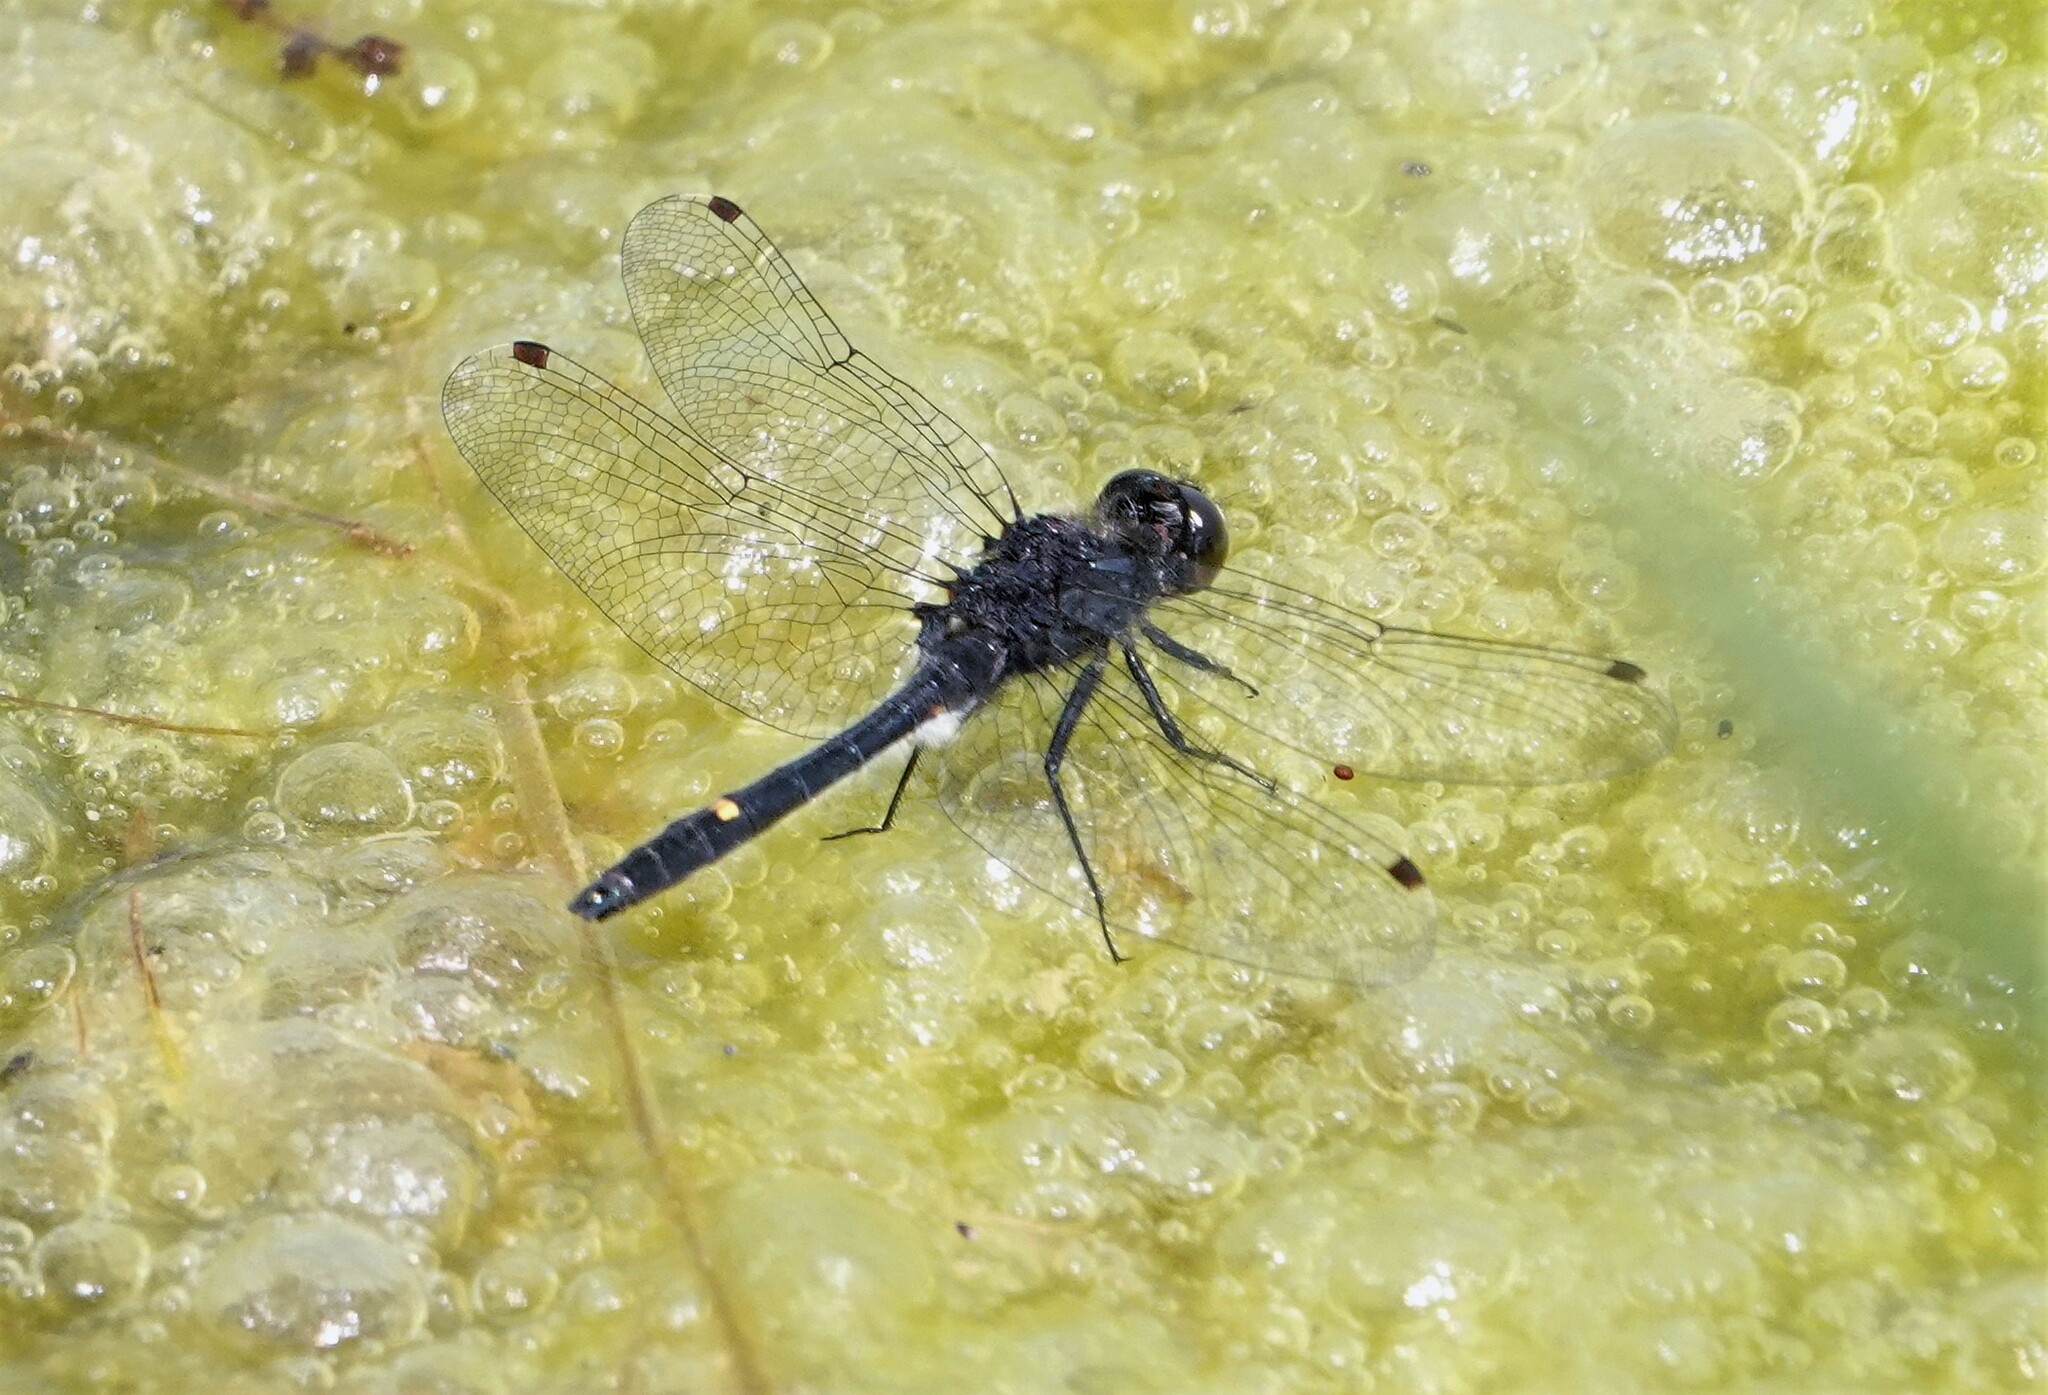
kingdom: Animalia
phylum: Arthropoda
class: Insecta
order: Odonata
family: Libellulidae
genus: Leucorrhinia
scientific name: Leucorrhinia intacta
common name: Dot-tailed whiteface
